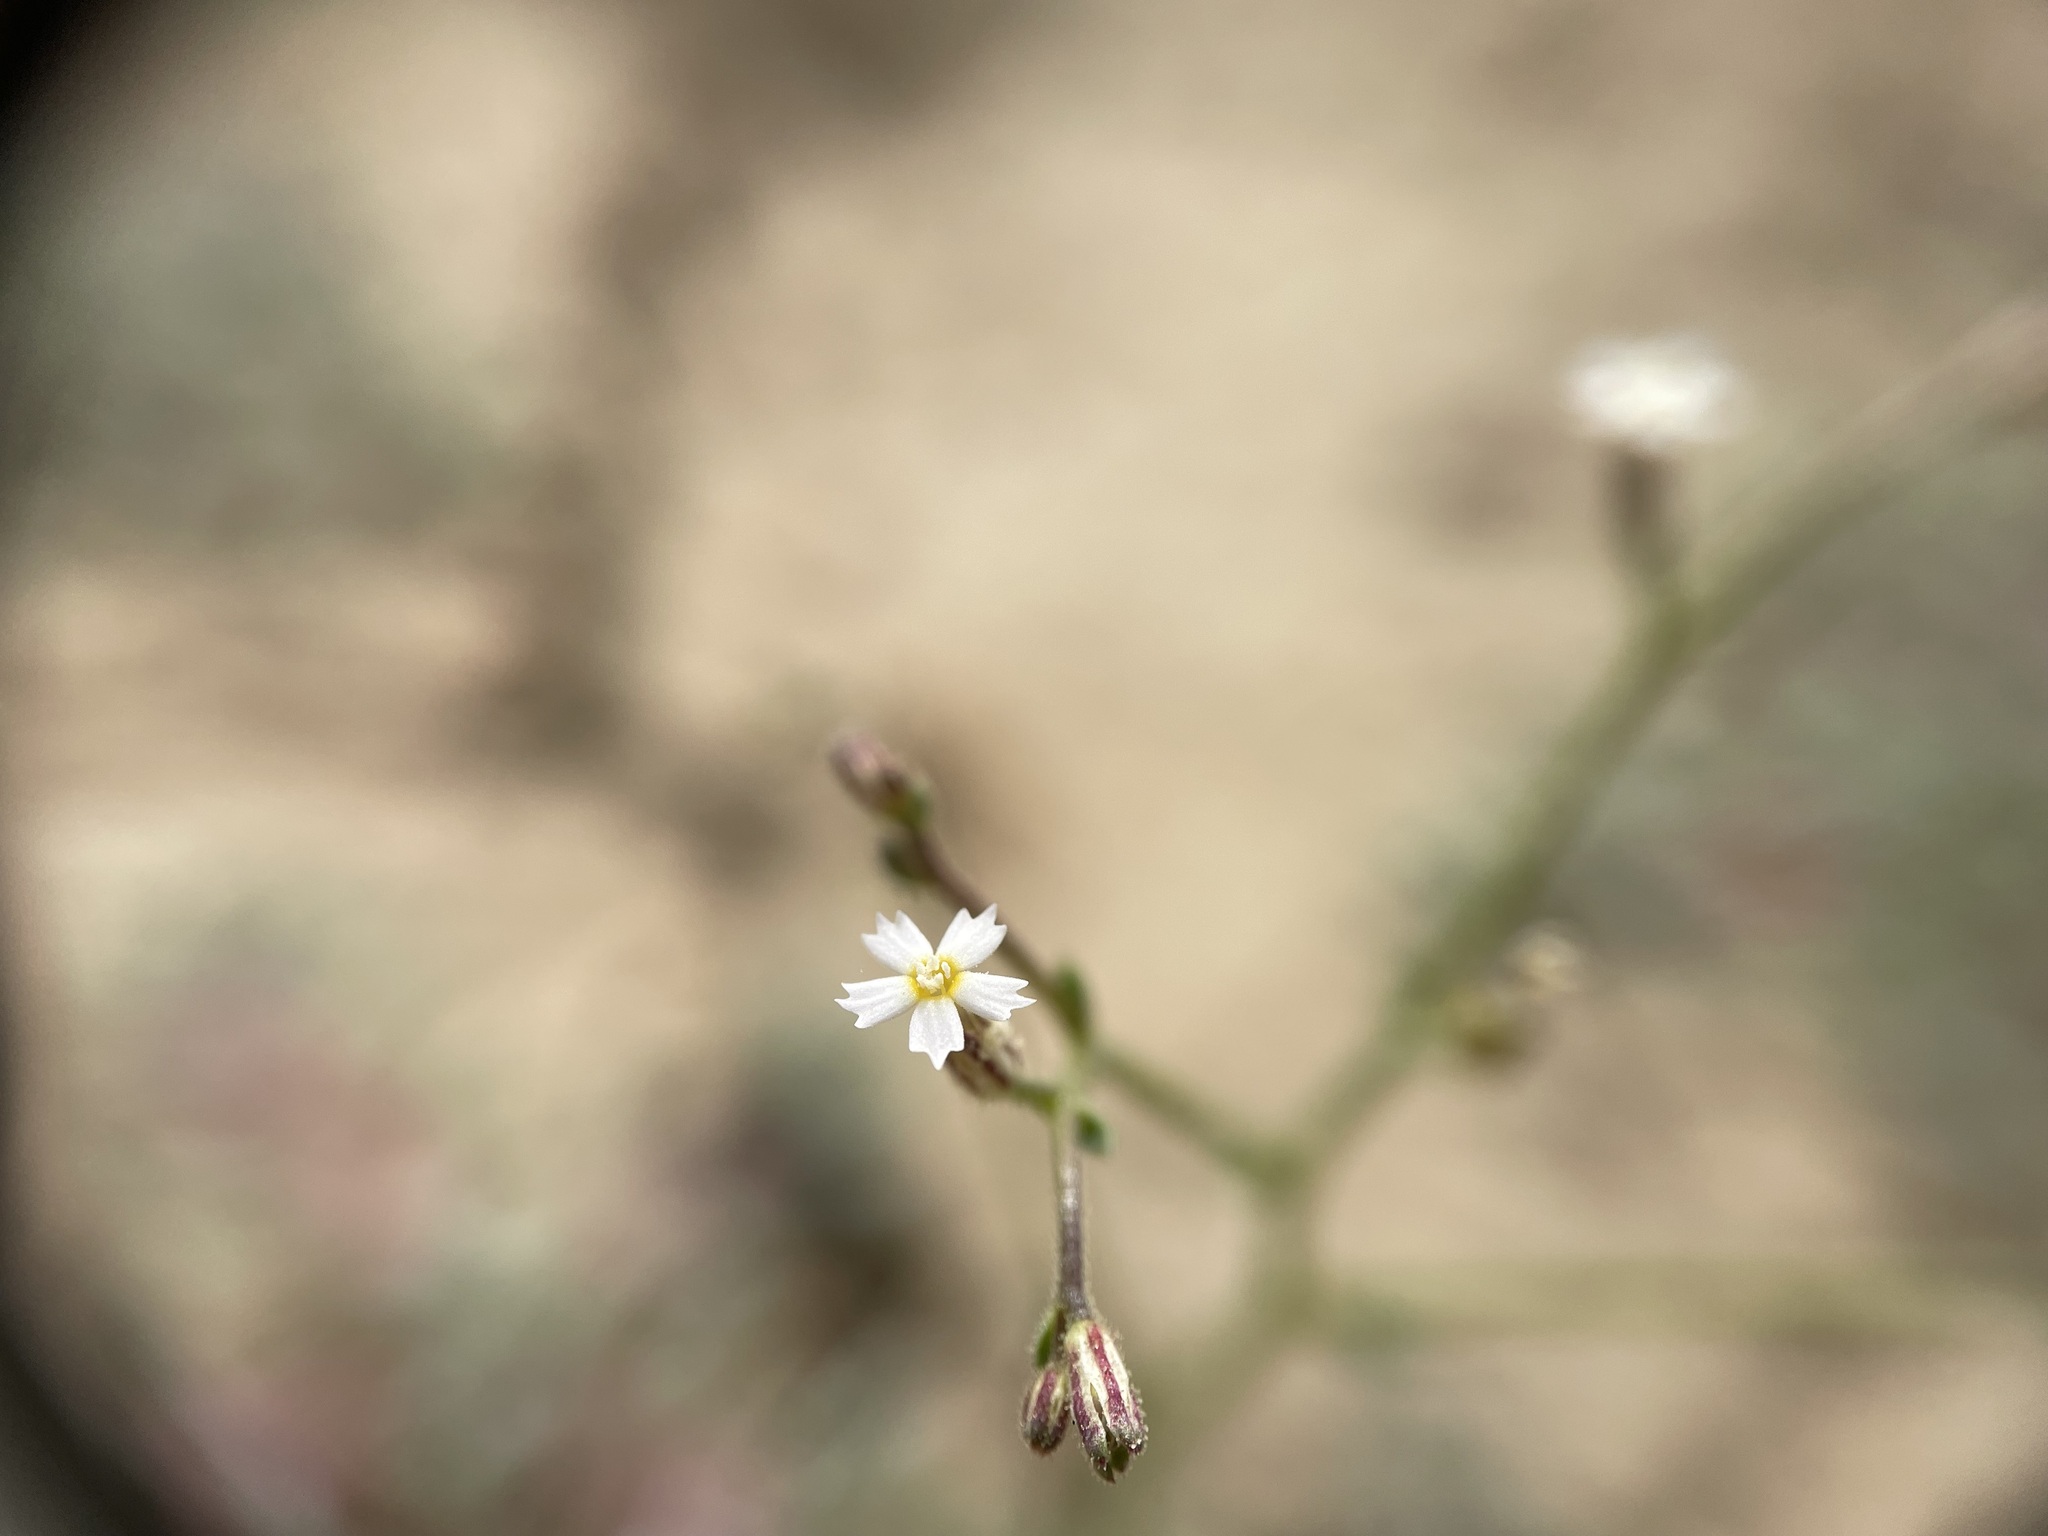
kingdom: Plantae
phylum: Tracheophyta
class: Magnoliopsida
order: Ericales
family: Polemoniaceae
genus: Aliciella
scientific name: Aliciella triodon
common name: Coyote gilia
